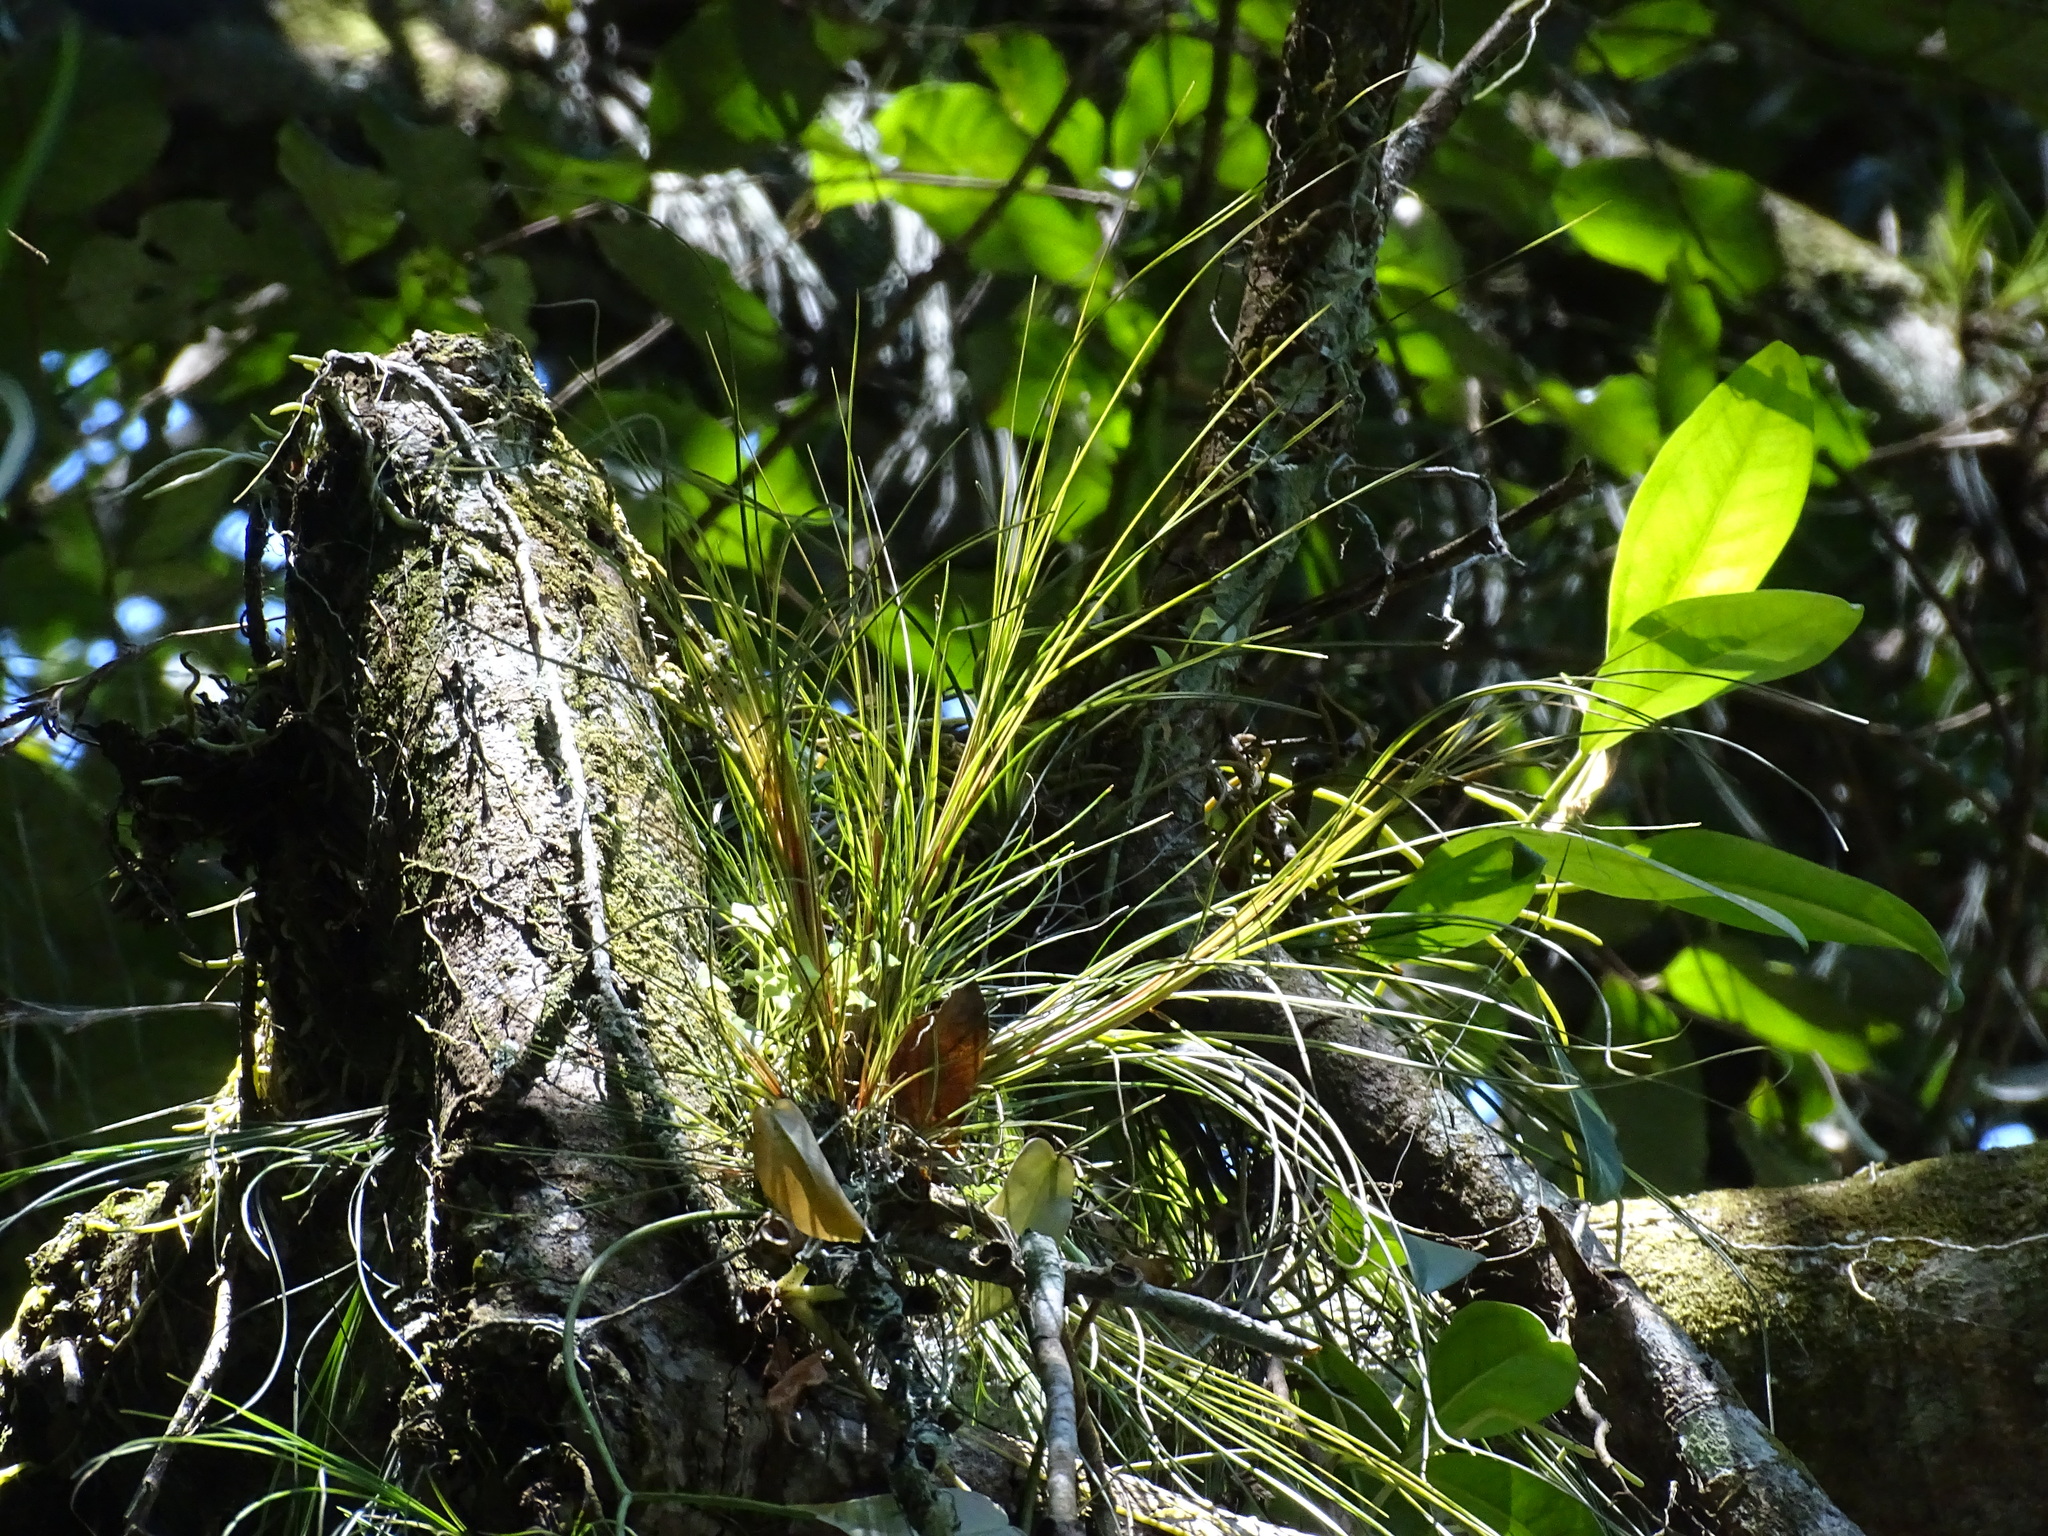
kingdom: Plantae
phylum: Tracheophyta
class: Liliopsida
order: Poales
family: Bromeliaceae
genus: Tillandsia
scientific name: Tillandsia eistetteri
